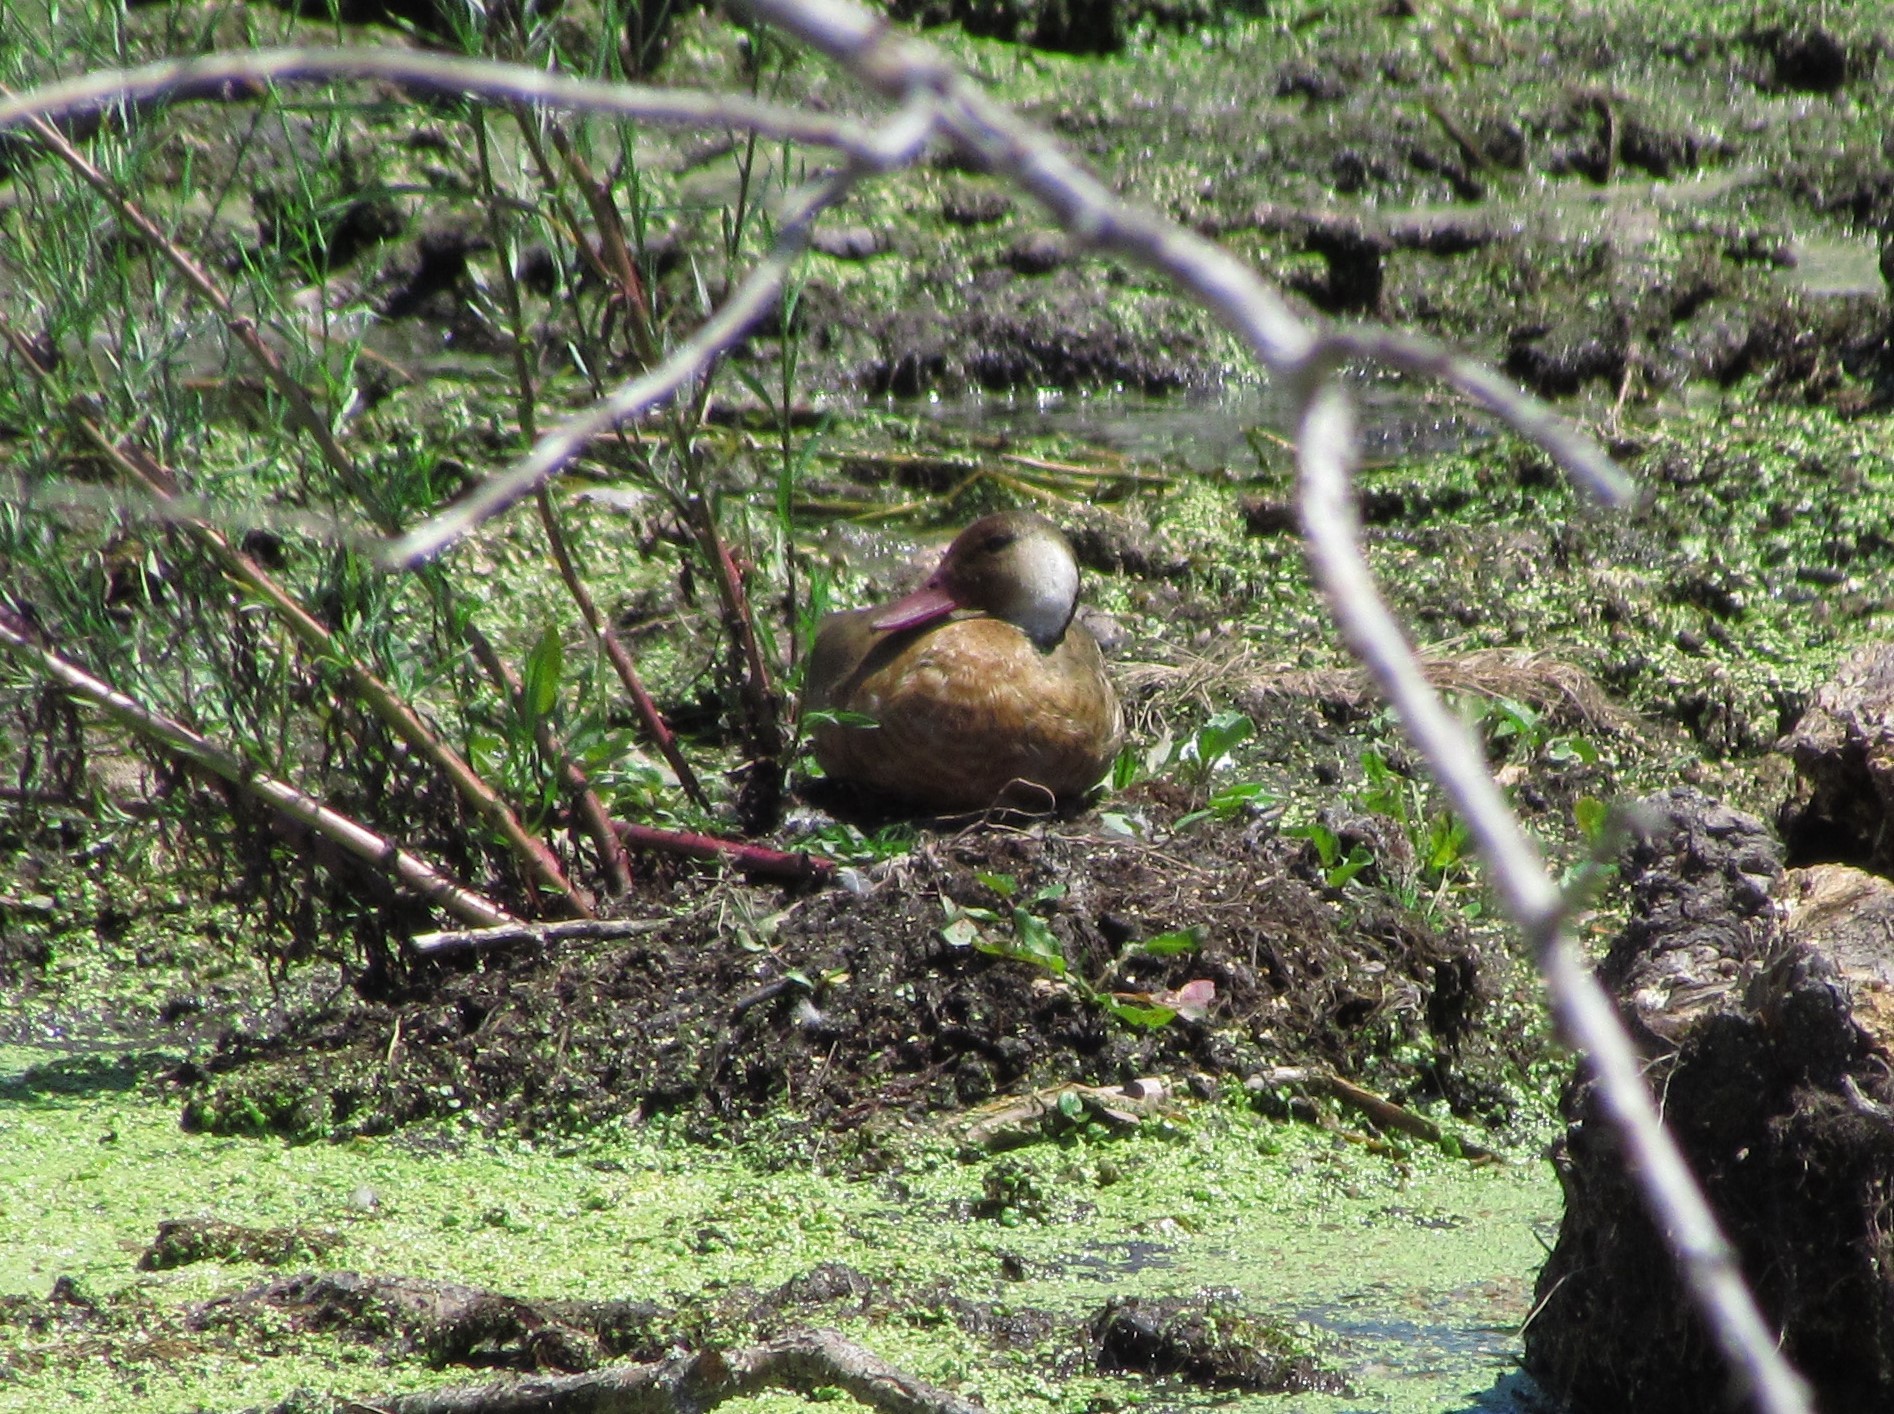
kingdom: Animalia
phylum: Chordata
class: Aves
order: Anseriformes
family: Anatidae
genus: Amazonetta
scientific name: Amazonetta brasiliensis
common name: Brazilian teal
